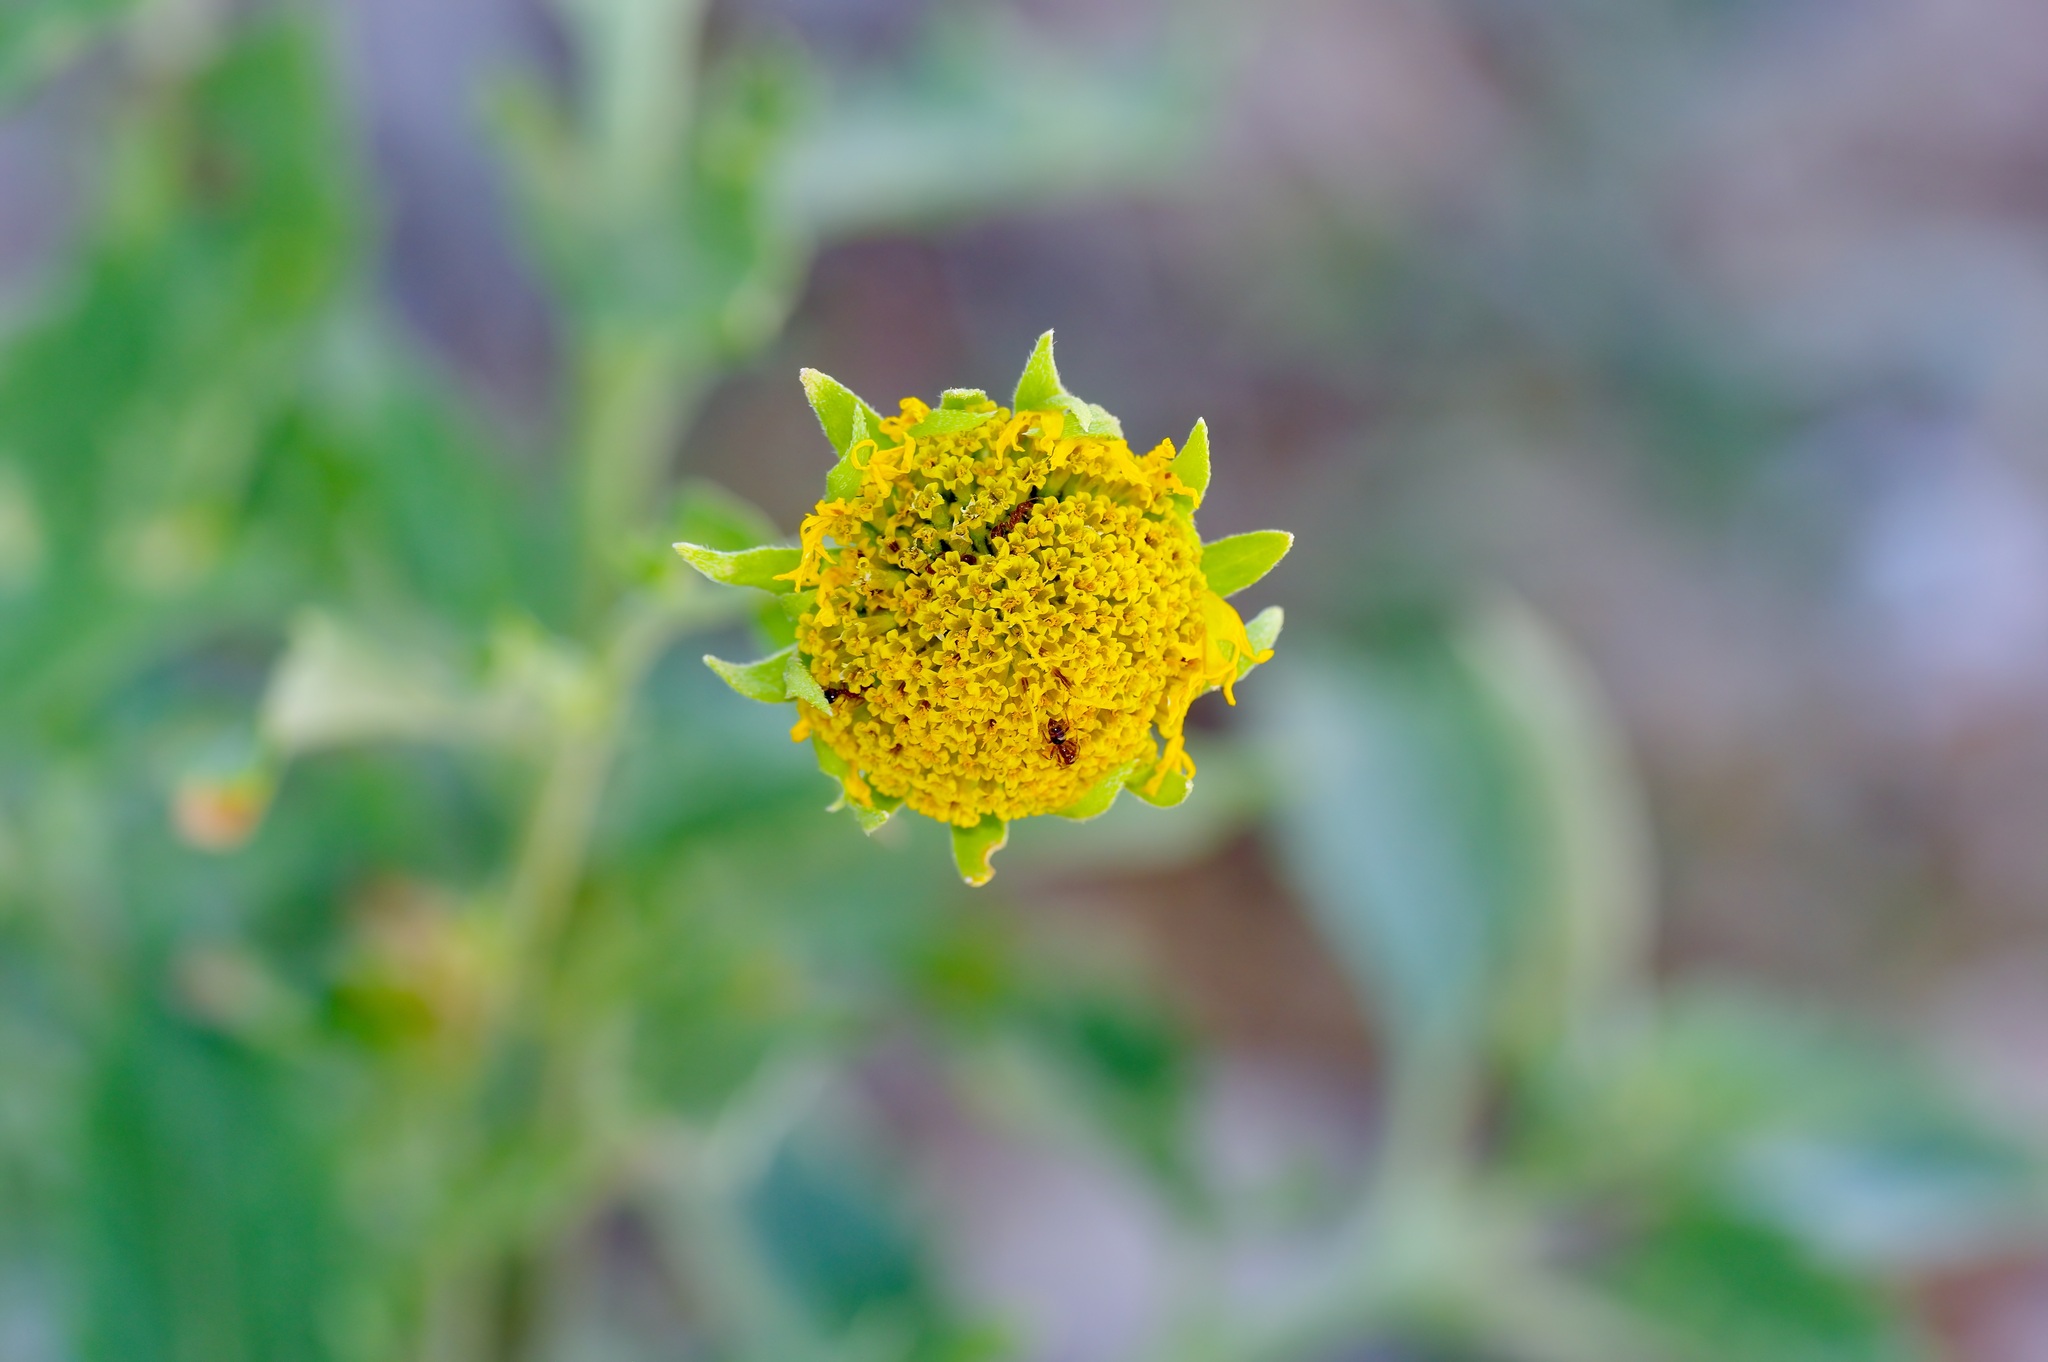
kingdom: Plantae
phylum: Tracheophyta
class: Magnoliopsida
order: Asterales
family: Asteraceae
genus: Verbesina
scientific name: Verbesina encelioides
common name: Golden crownbeard
